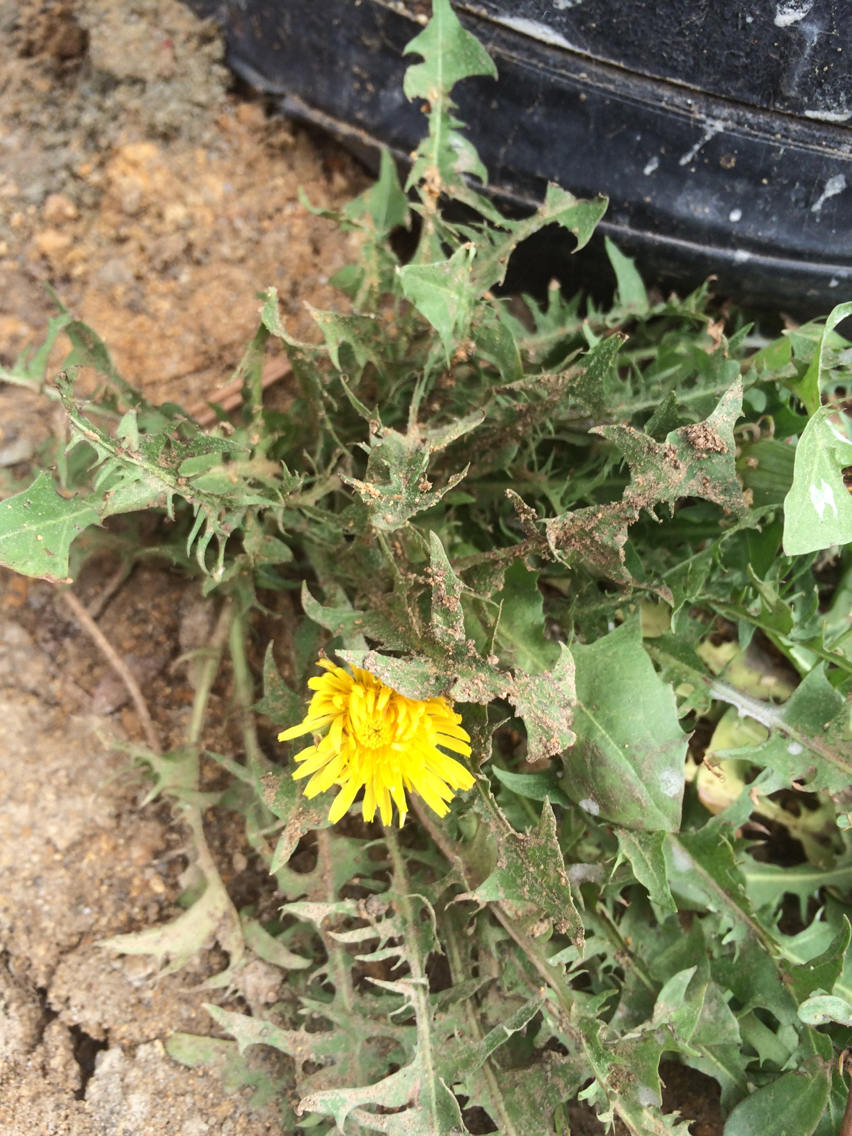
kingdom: Plantae
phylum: Tracheophyta
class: Magnoliopsida
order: Asterales
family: Asteraceae
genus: Taraxacum
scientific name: Taraxacum erythrospermum
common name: Rock dandelion
